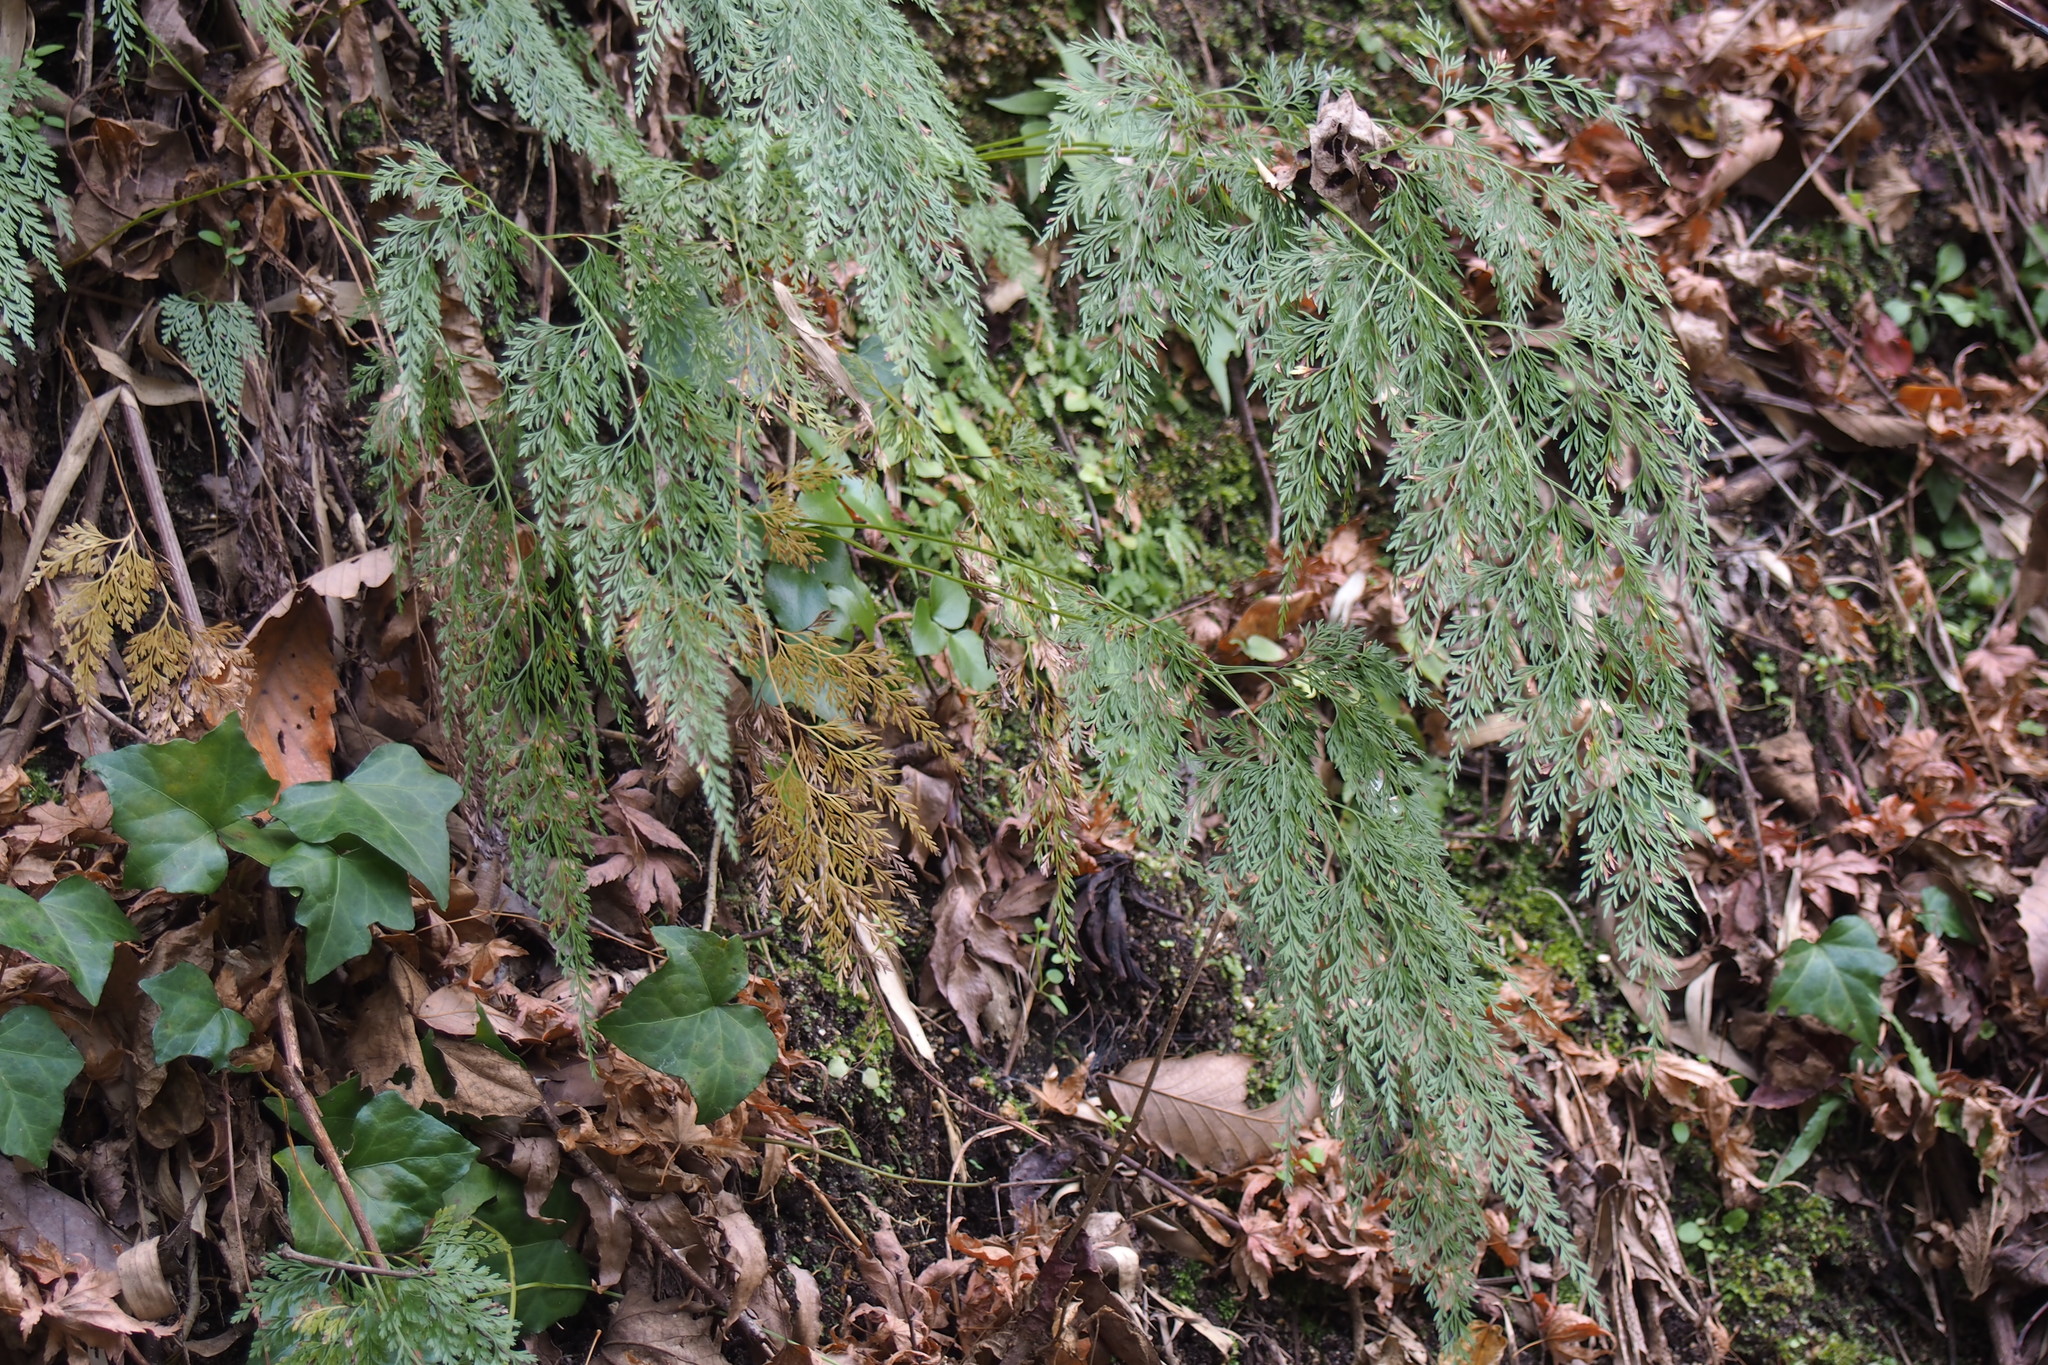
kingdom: Plantae
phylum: Tracheophyta
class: Polypodiopsida
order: Polypodiales
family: Pteridaceae
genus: Onychium
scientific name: Onychium japonicum
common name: Carrot fern
